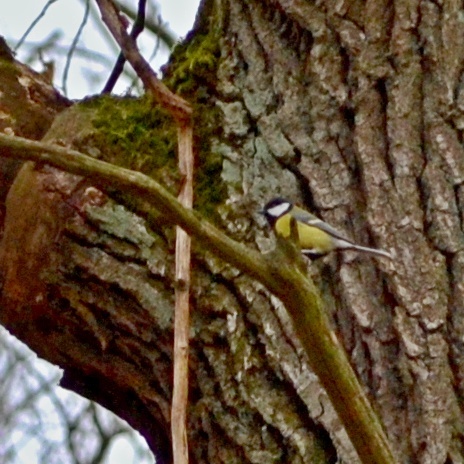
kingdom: Animalia
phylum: Chordata
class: Aves
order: Passeriformes
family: Paridae
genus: Parus
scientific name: Parus major
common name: Great tit
